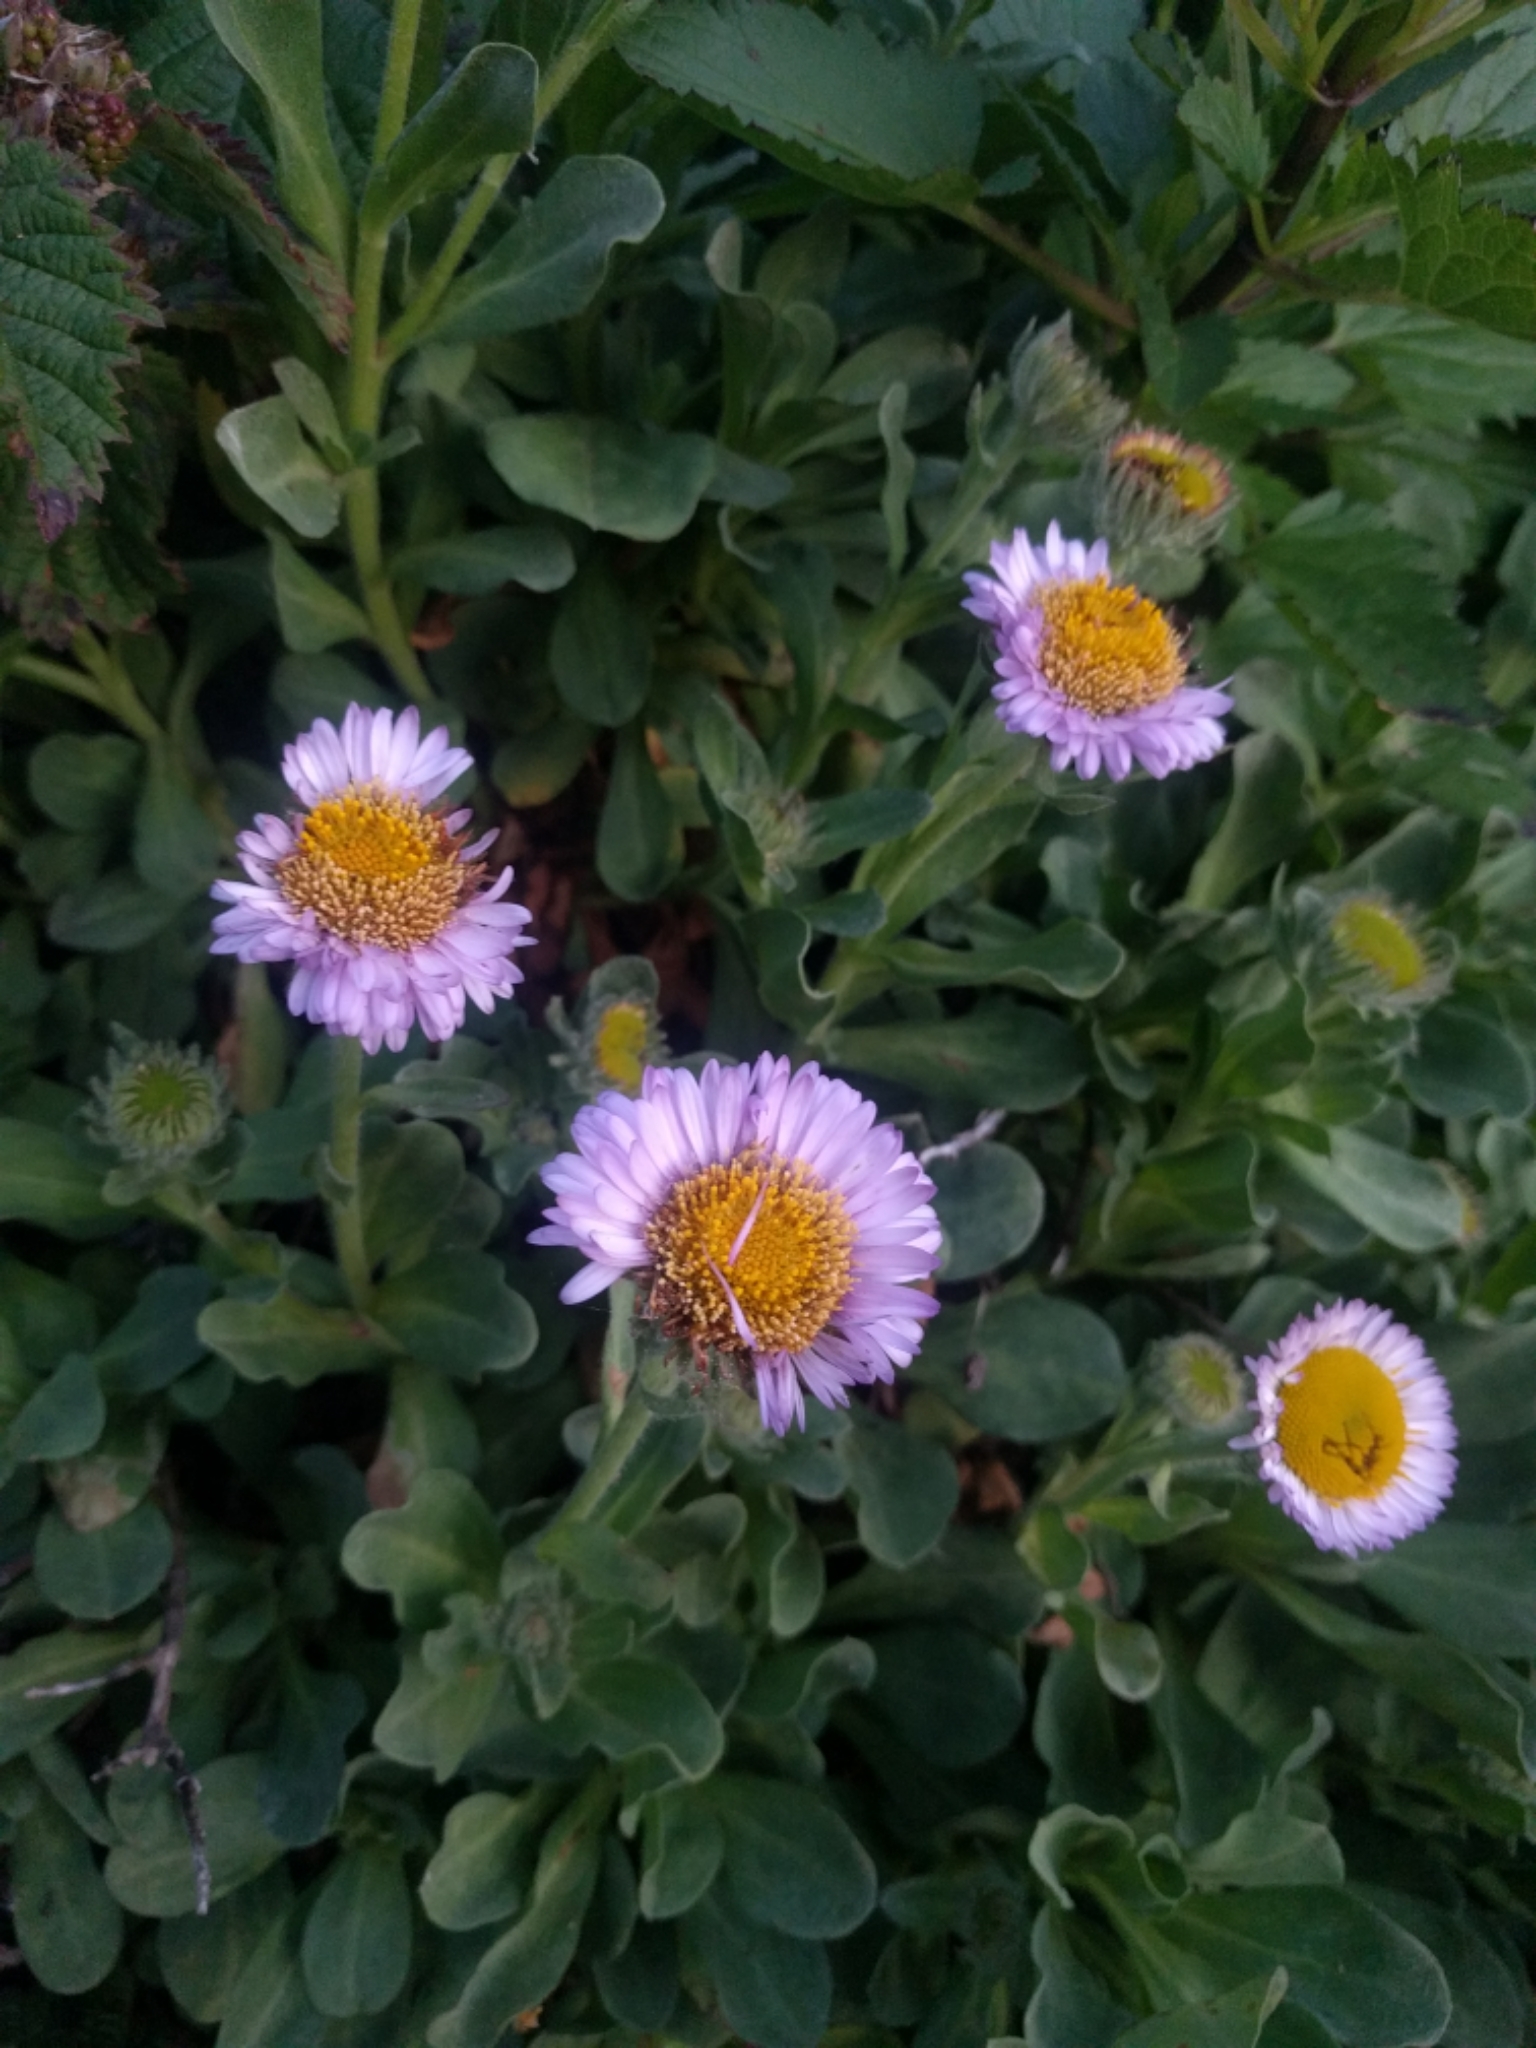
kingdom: Plantae
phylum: Tracheophyta
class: Magnoliopsida
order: Asterales
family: Asteraceae
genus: Erigeron
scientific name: Erigeron glaucus
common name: Seaside daisy
